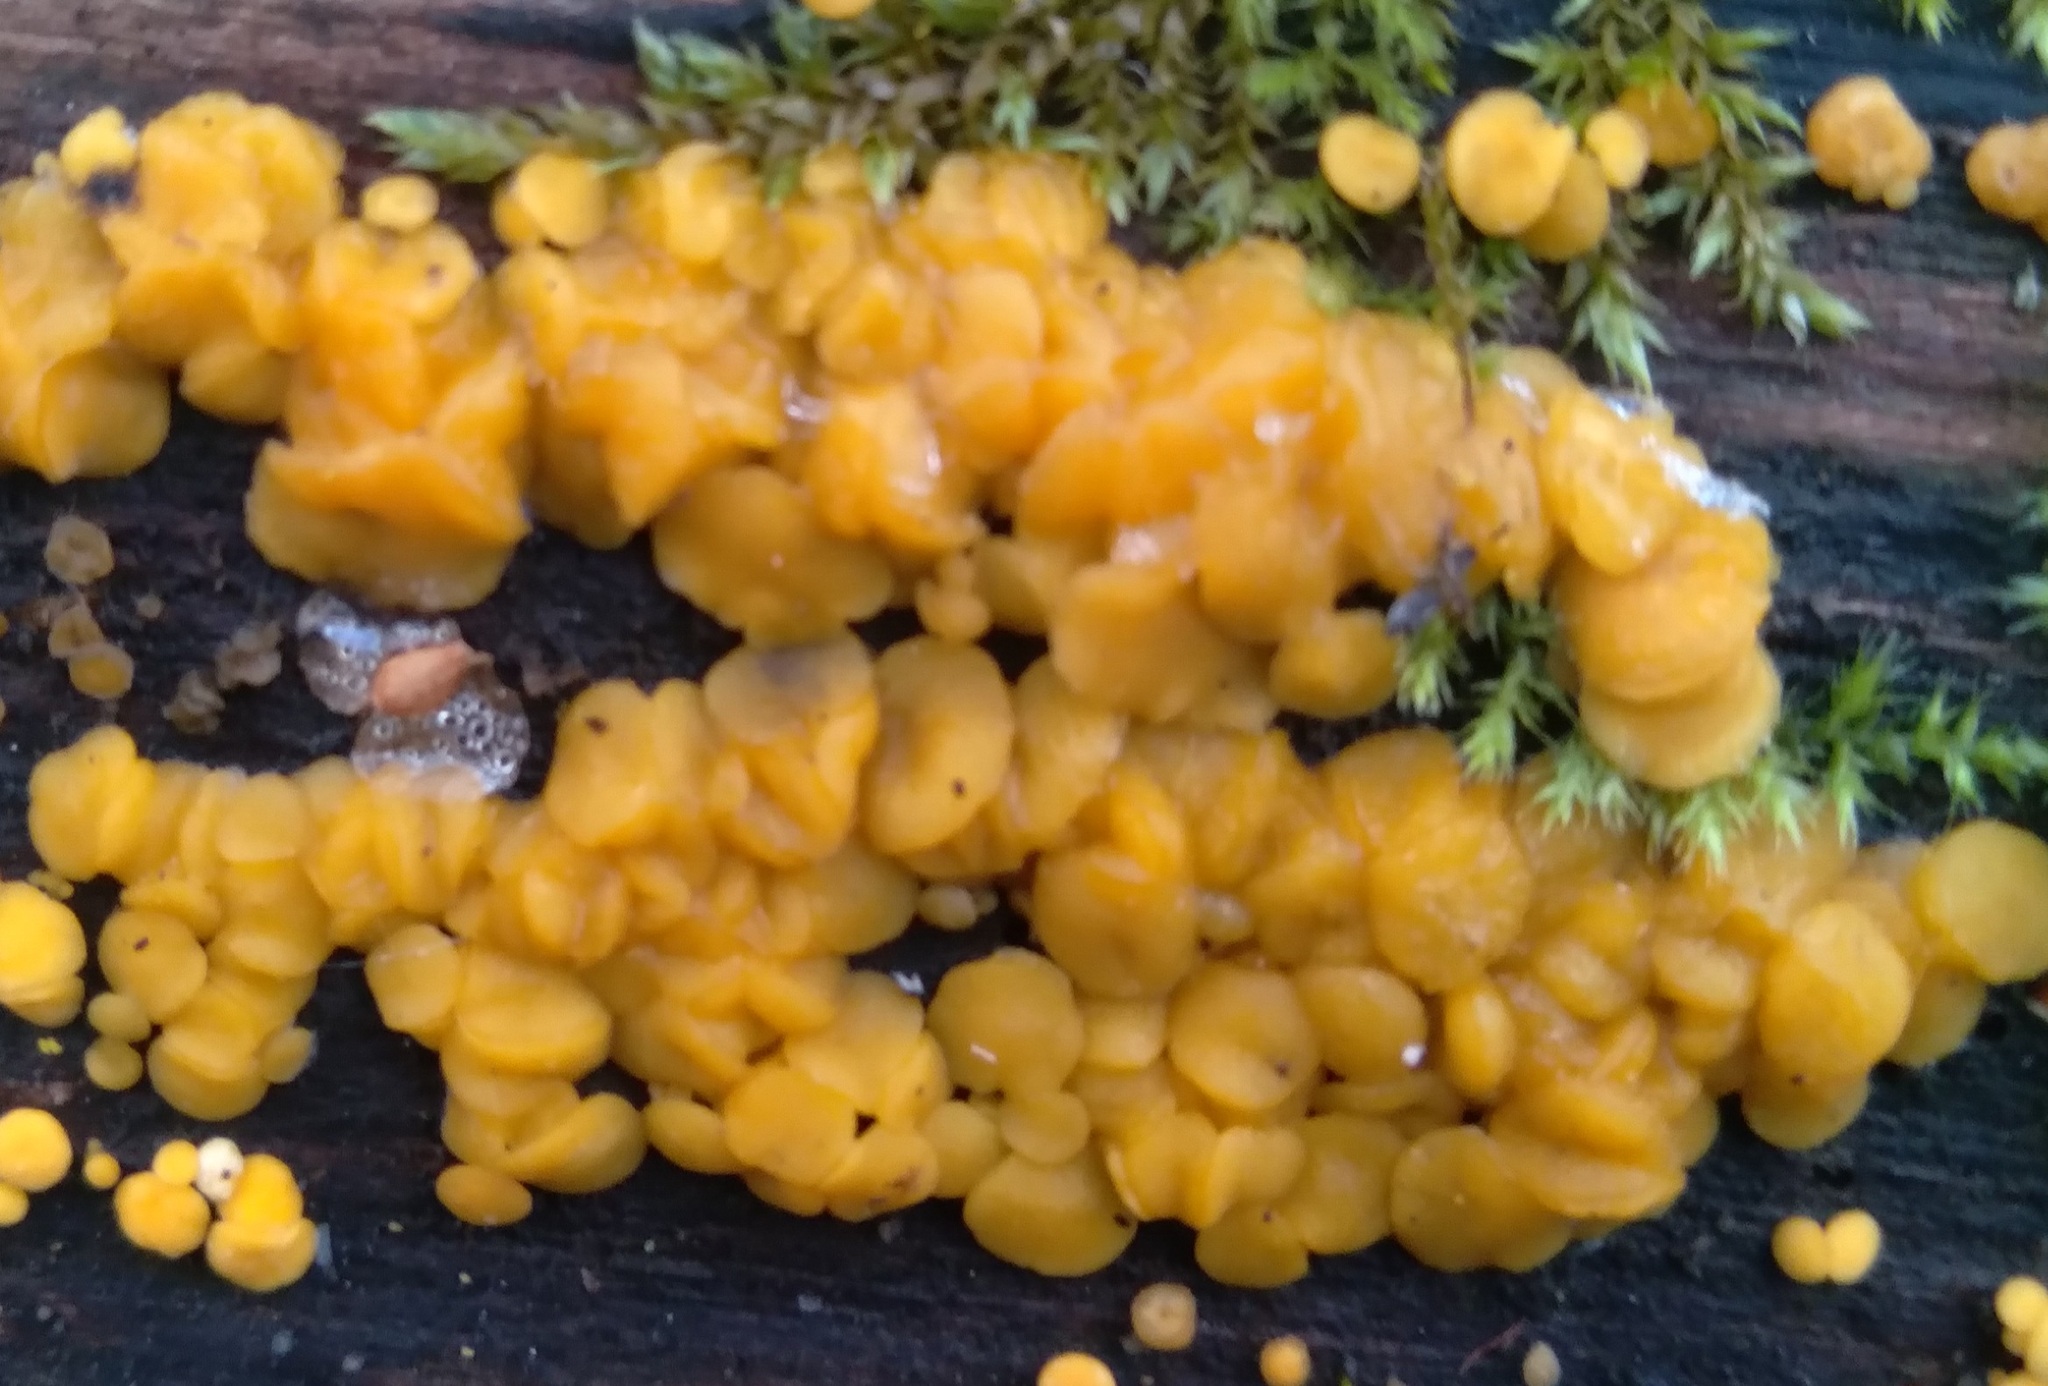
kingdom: Fungi
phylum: Ascomycota
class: Leotiomycetes
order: Helotiales
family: Pezizellaceae
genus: Calycina
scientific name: Calycina citrina
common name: Yellow fairy cups
